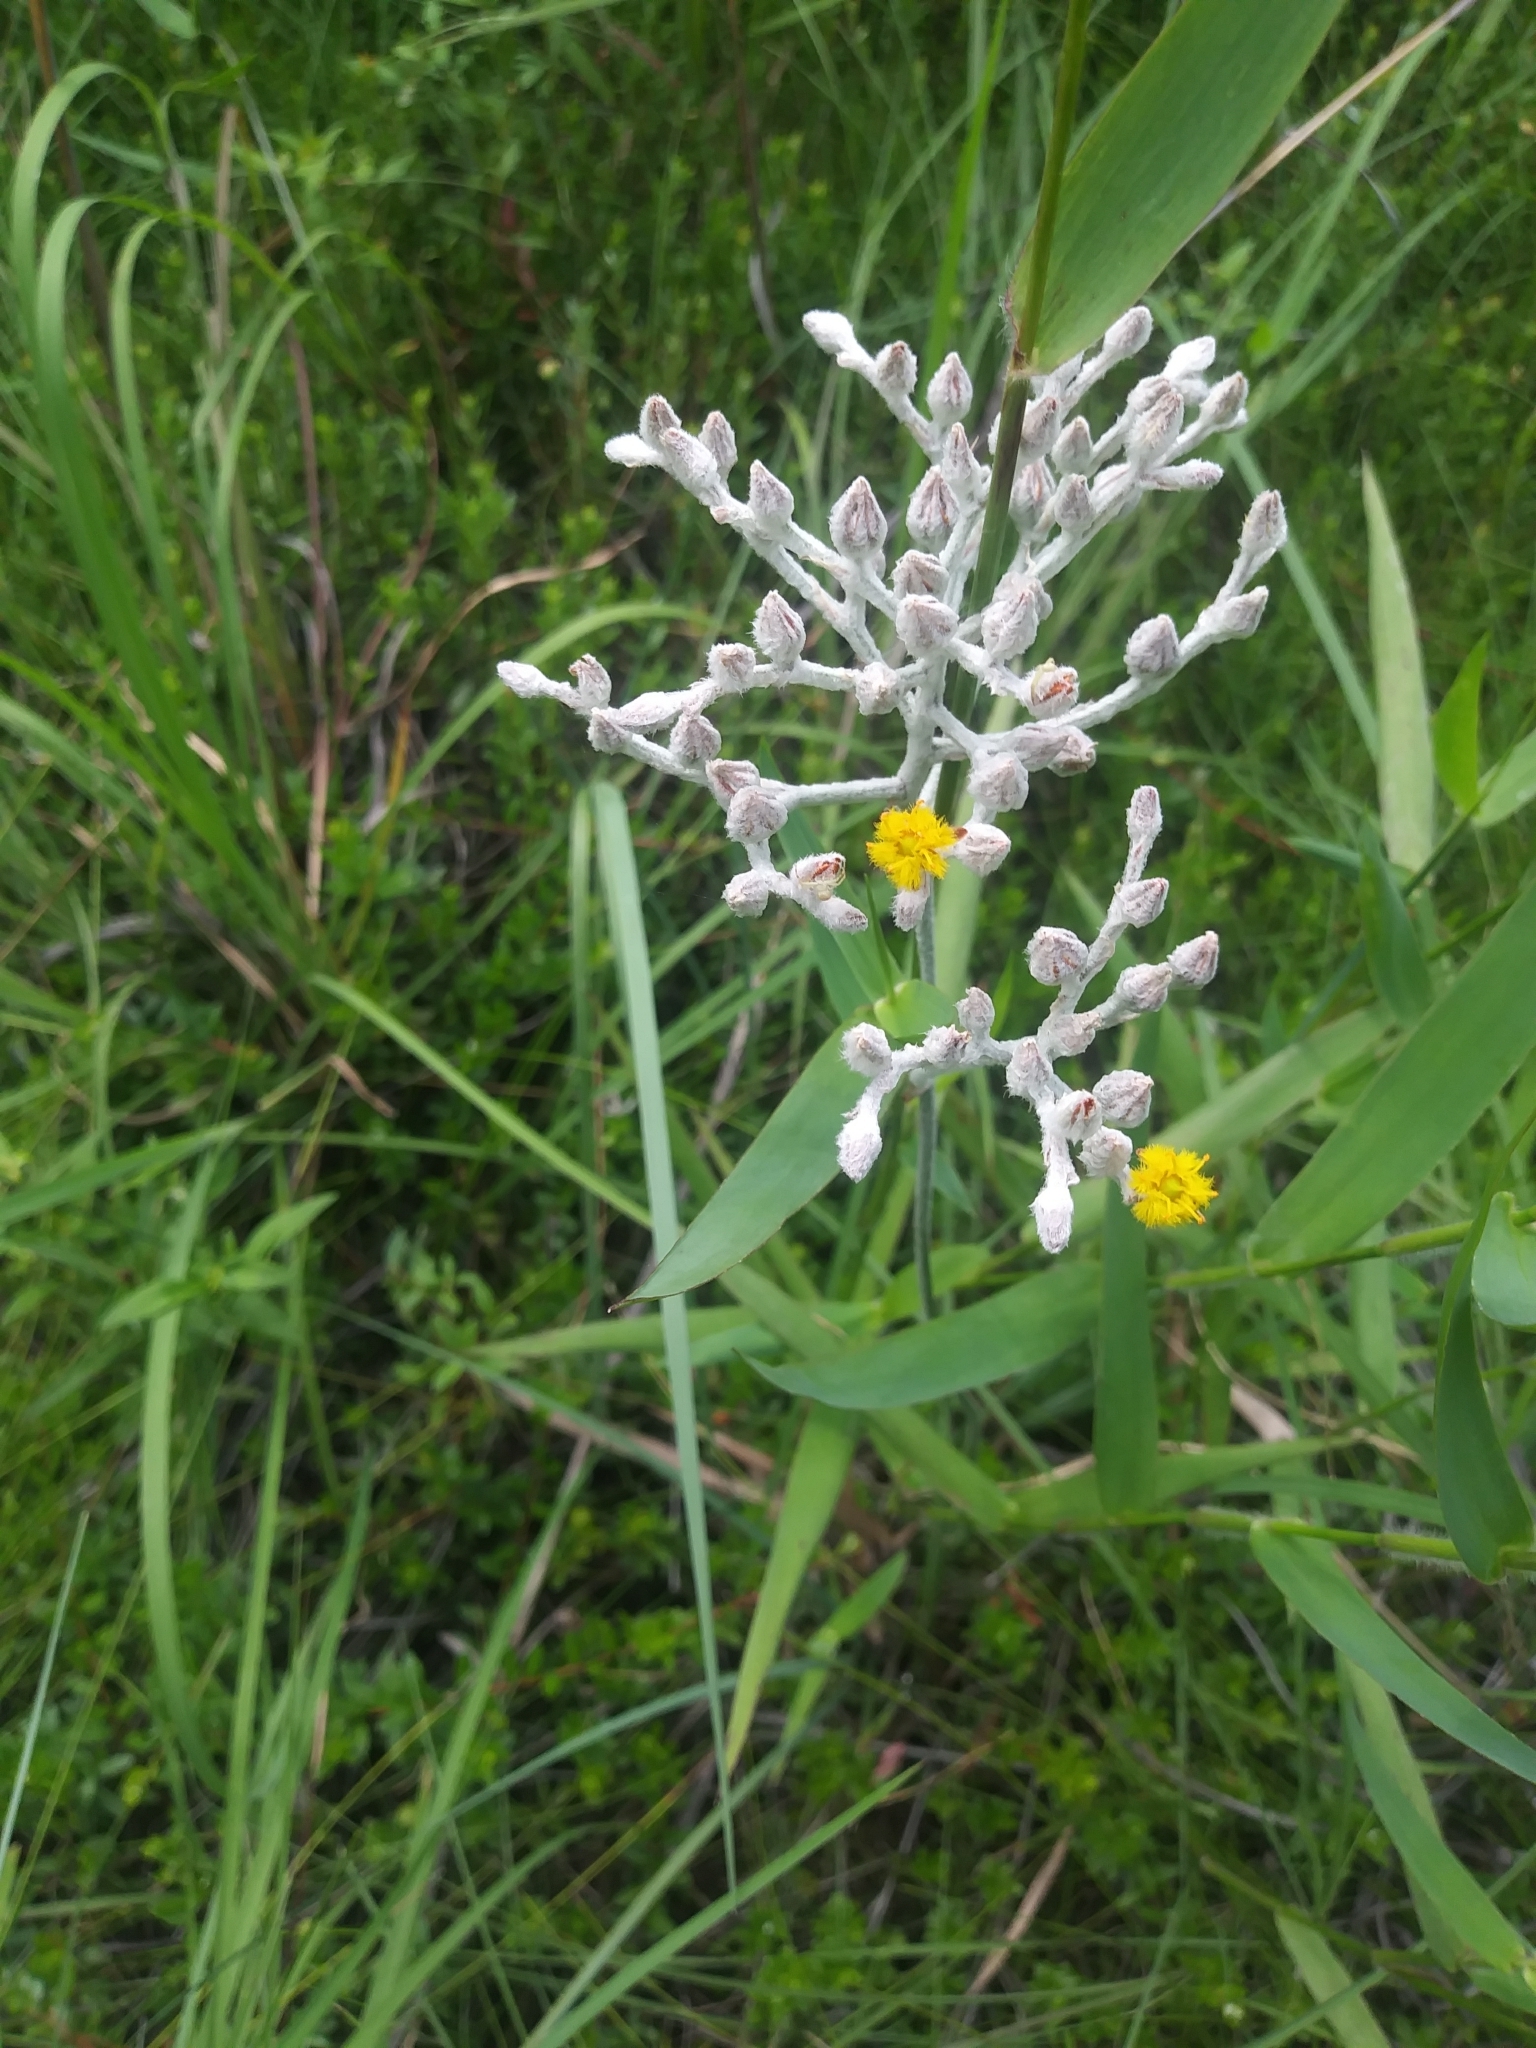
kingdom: Plantae
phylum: Tracheophyta
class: Liliopsida
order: Dioscoreales
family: Nartheciaceae
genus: Lophiola
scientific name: Lophiola aurea
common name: Golden-crest
